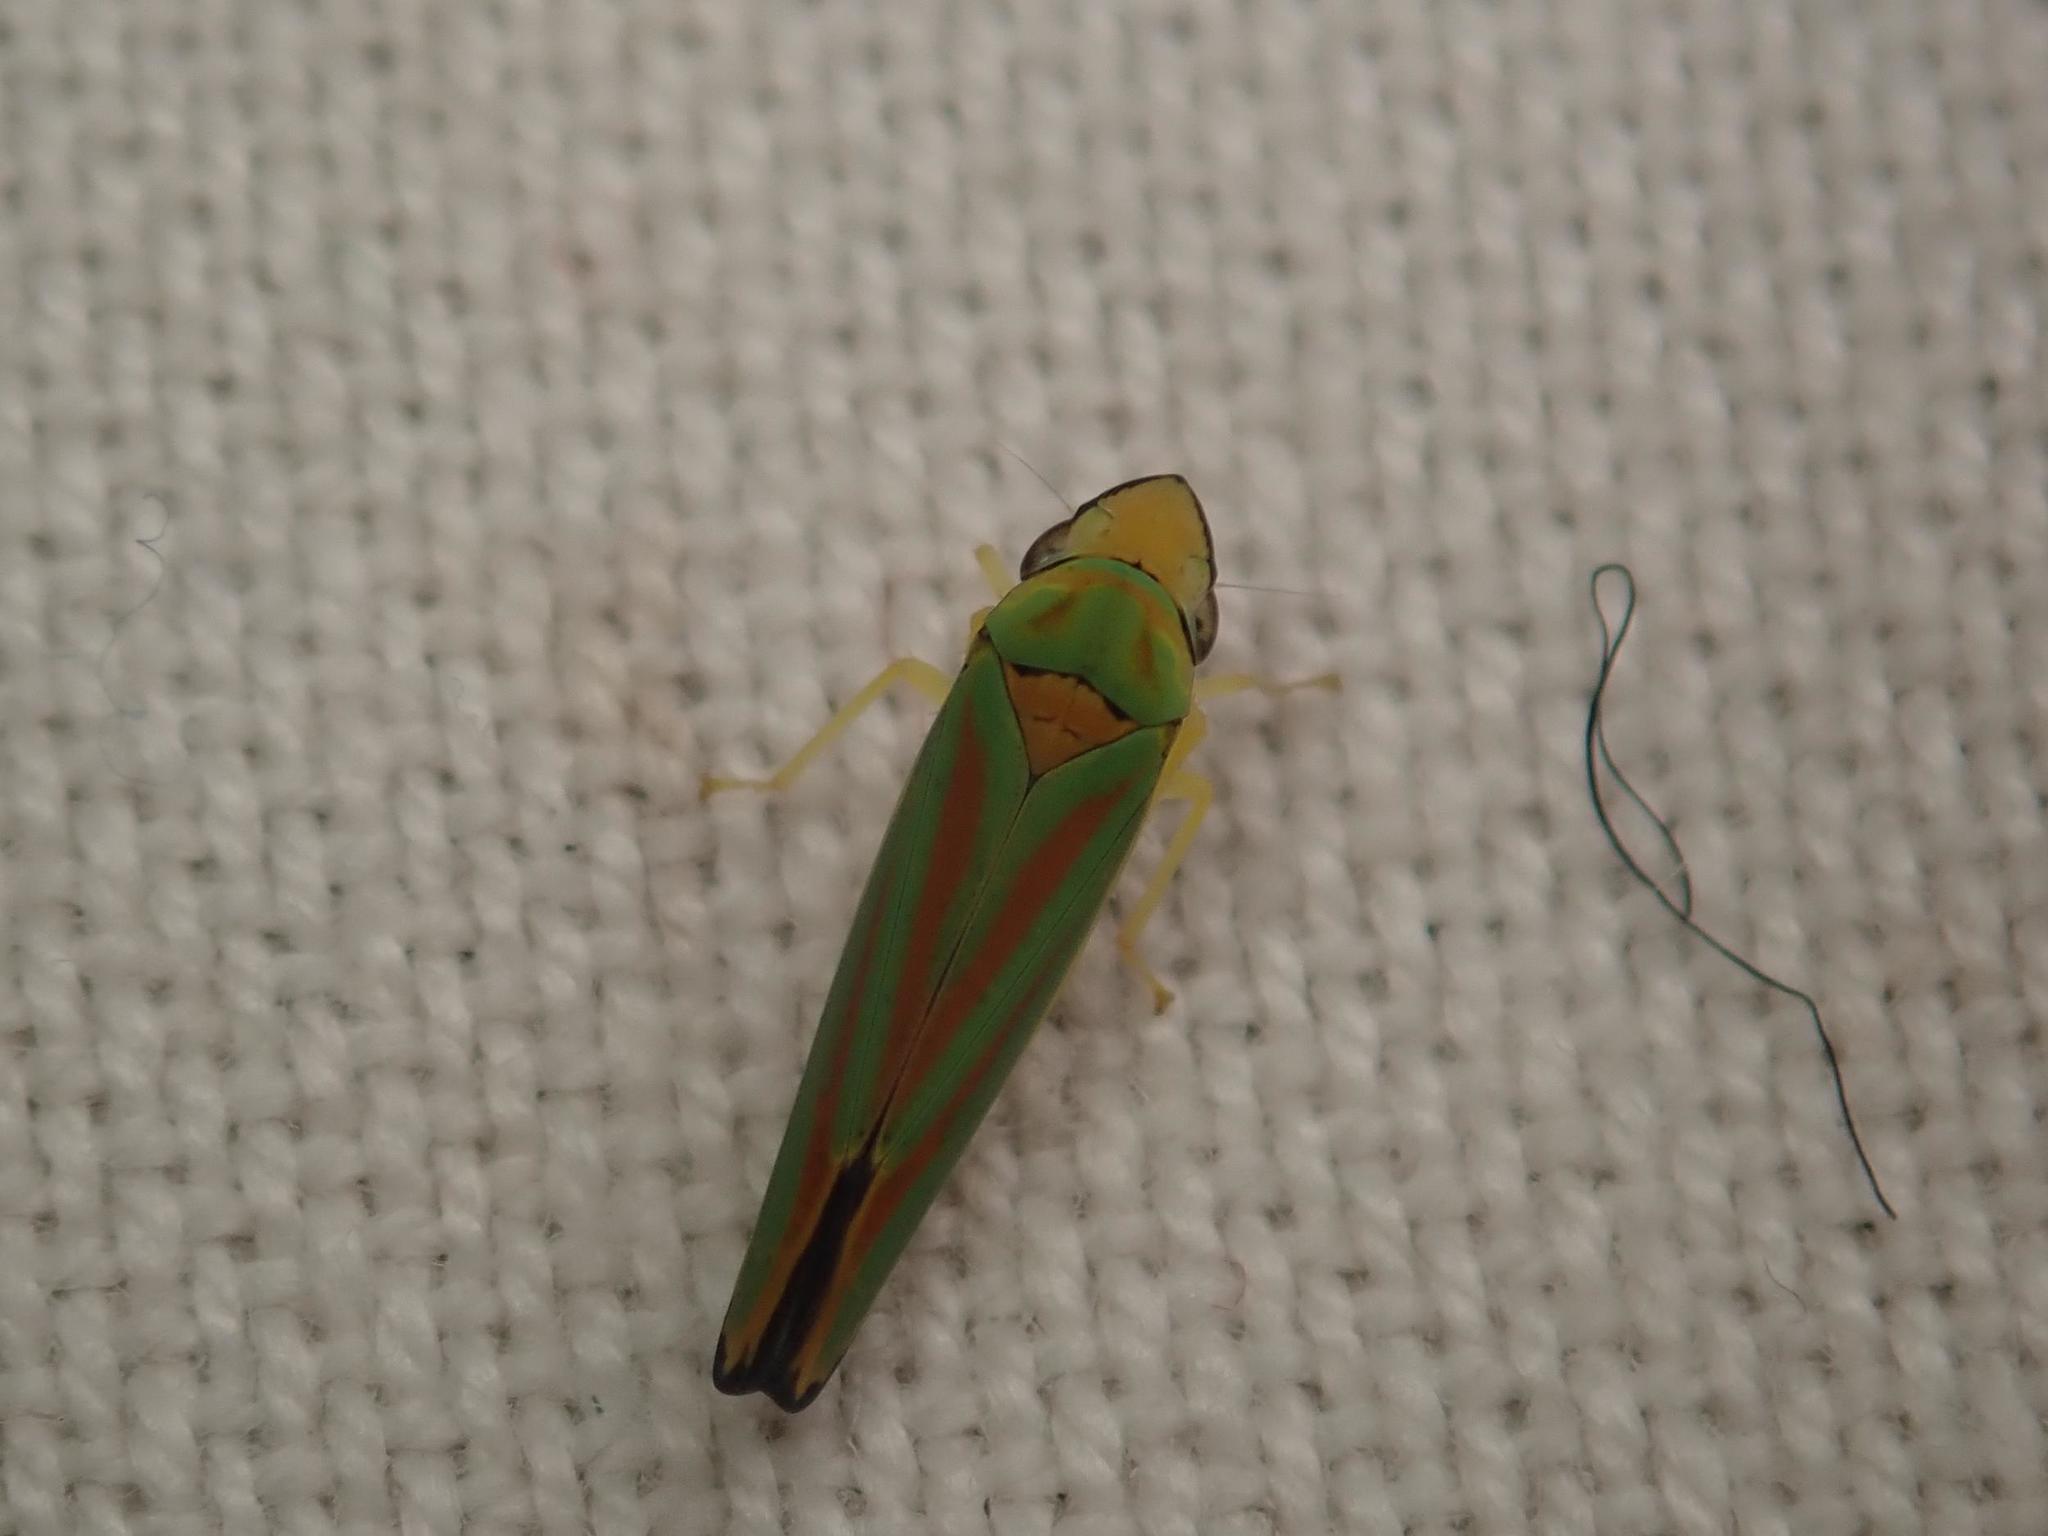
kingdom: Animalia
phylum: Arthropoda
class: Insecta
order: Hemiptera
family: Cicadellidae
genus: Graphocephala
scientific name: Graphocephala fennahi
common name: Rhododendron leafhopper
